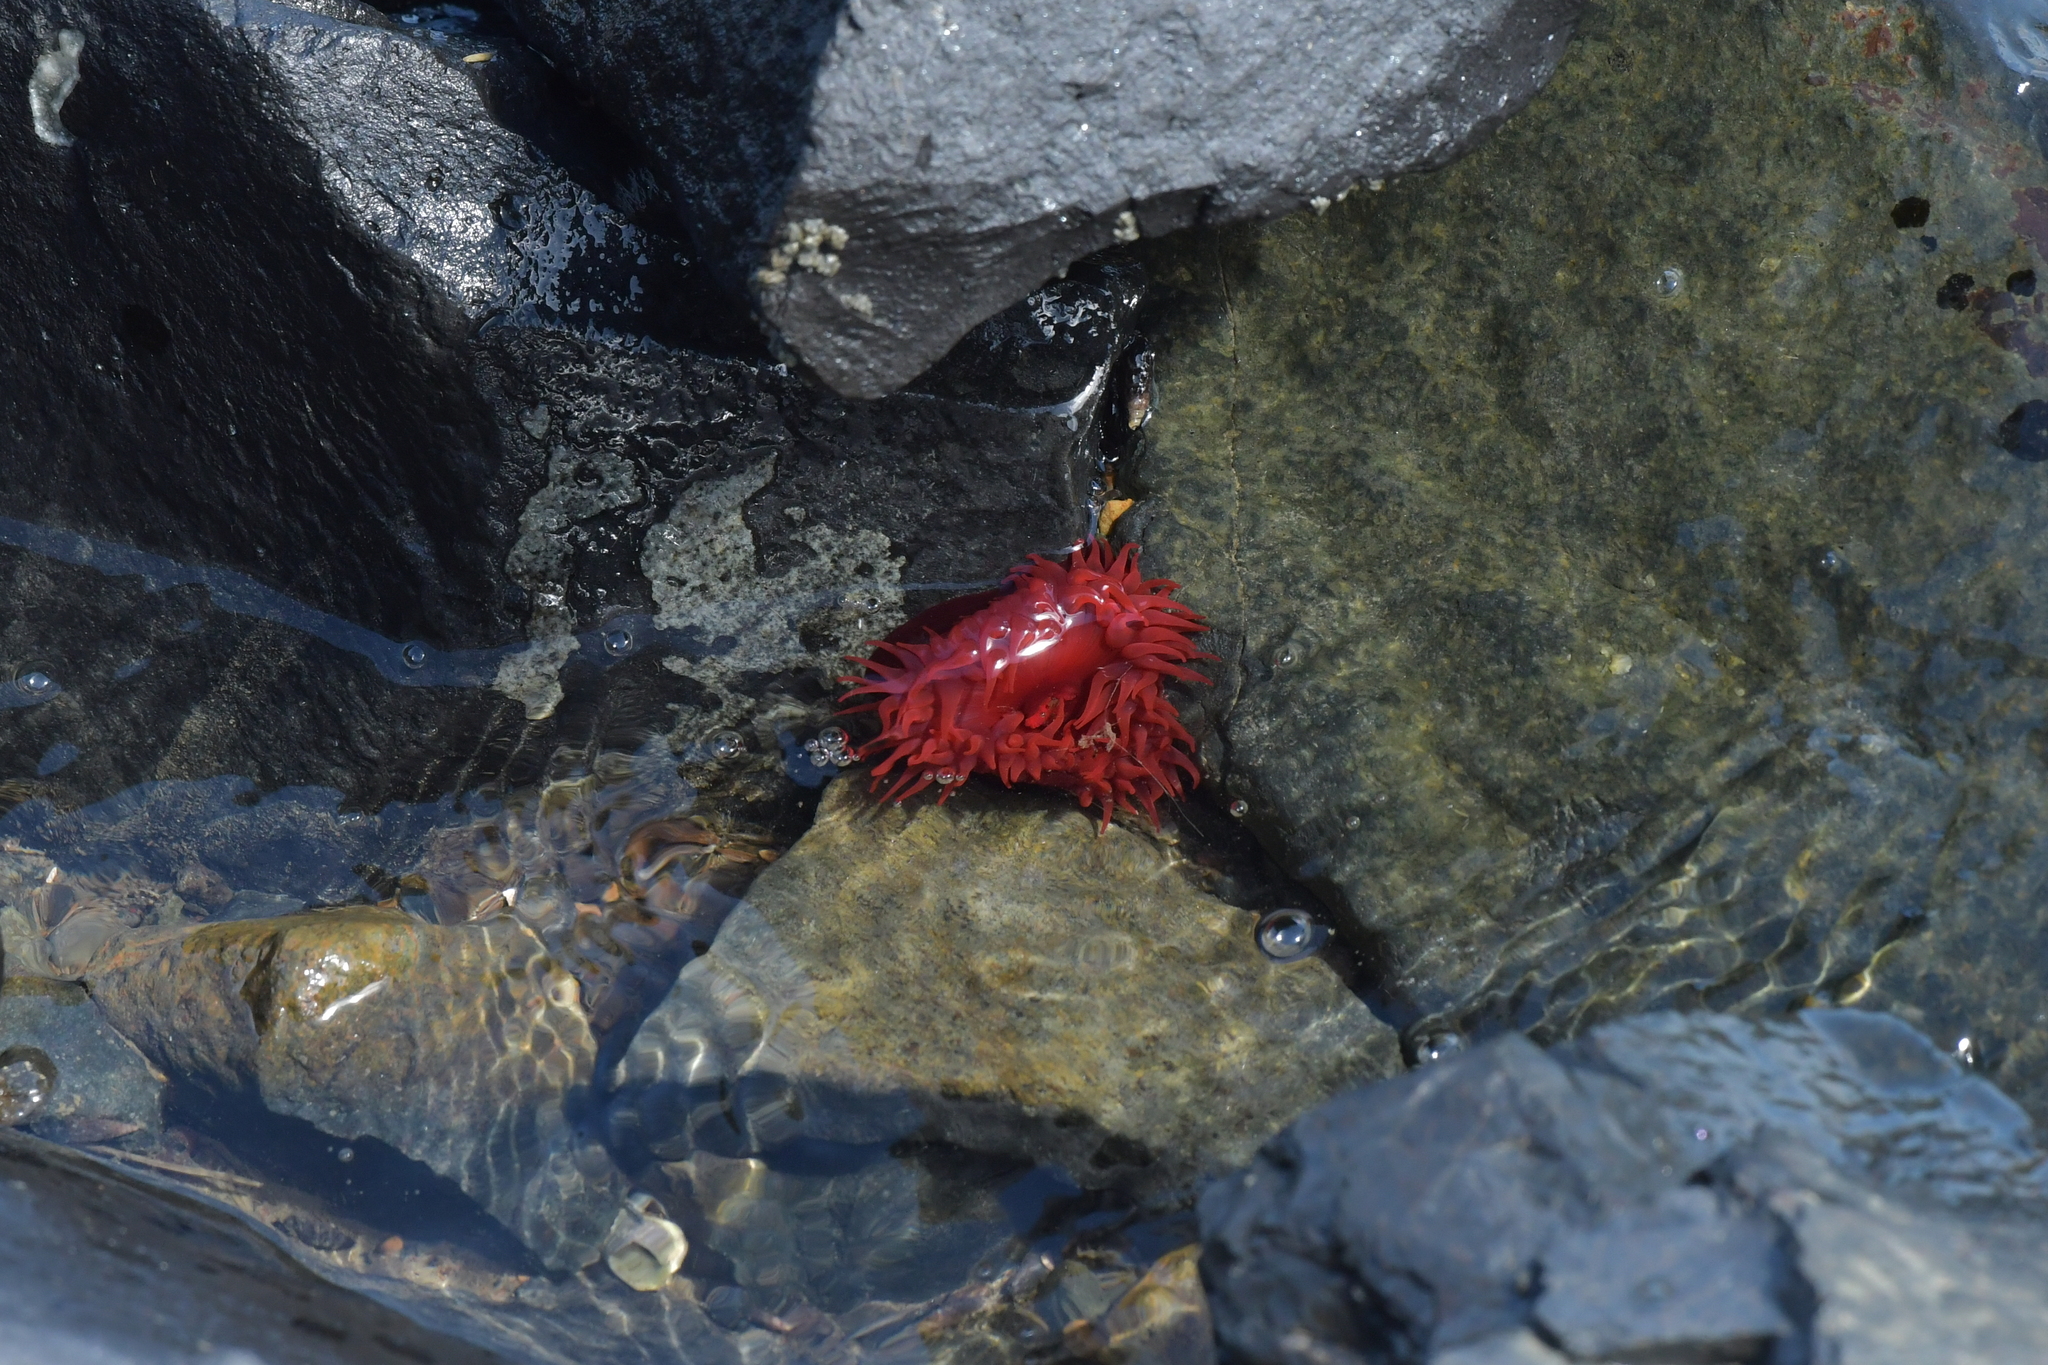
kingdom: Animalia
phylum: Cnidaria
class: Anthozoa
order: Actiniaria
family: Actiniidae
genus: Actinia
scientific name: Actinia tenebrosa
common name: Waratah anemone
